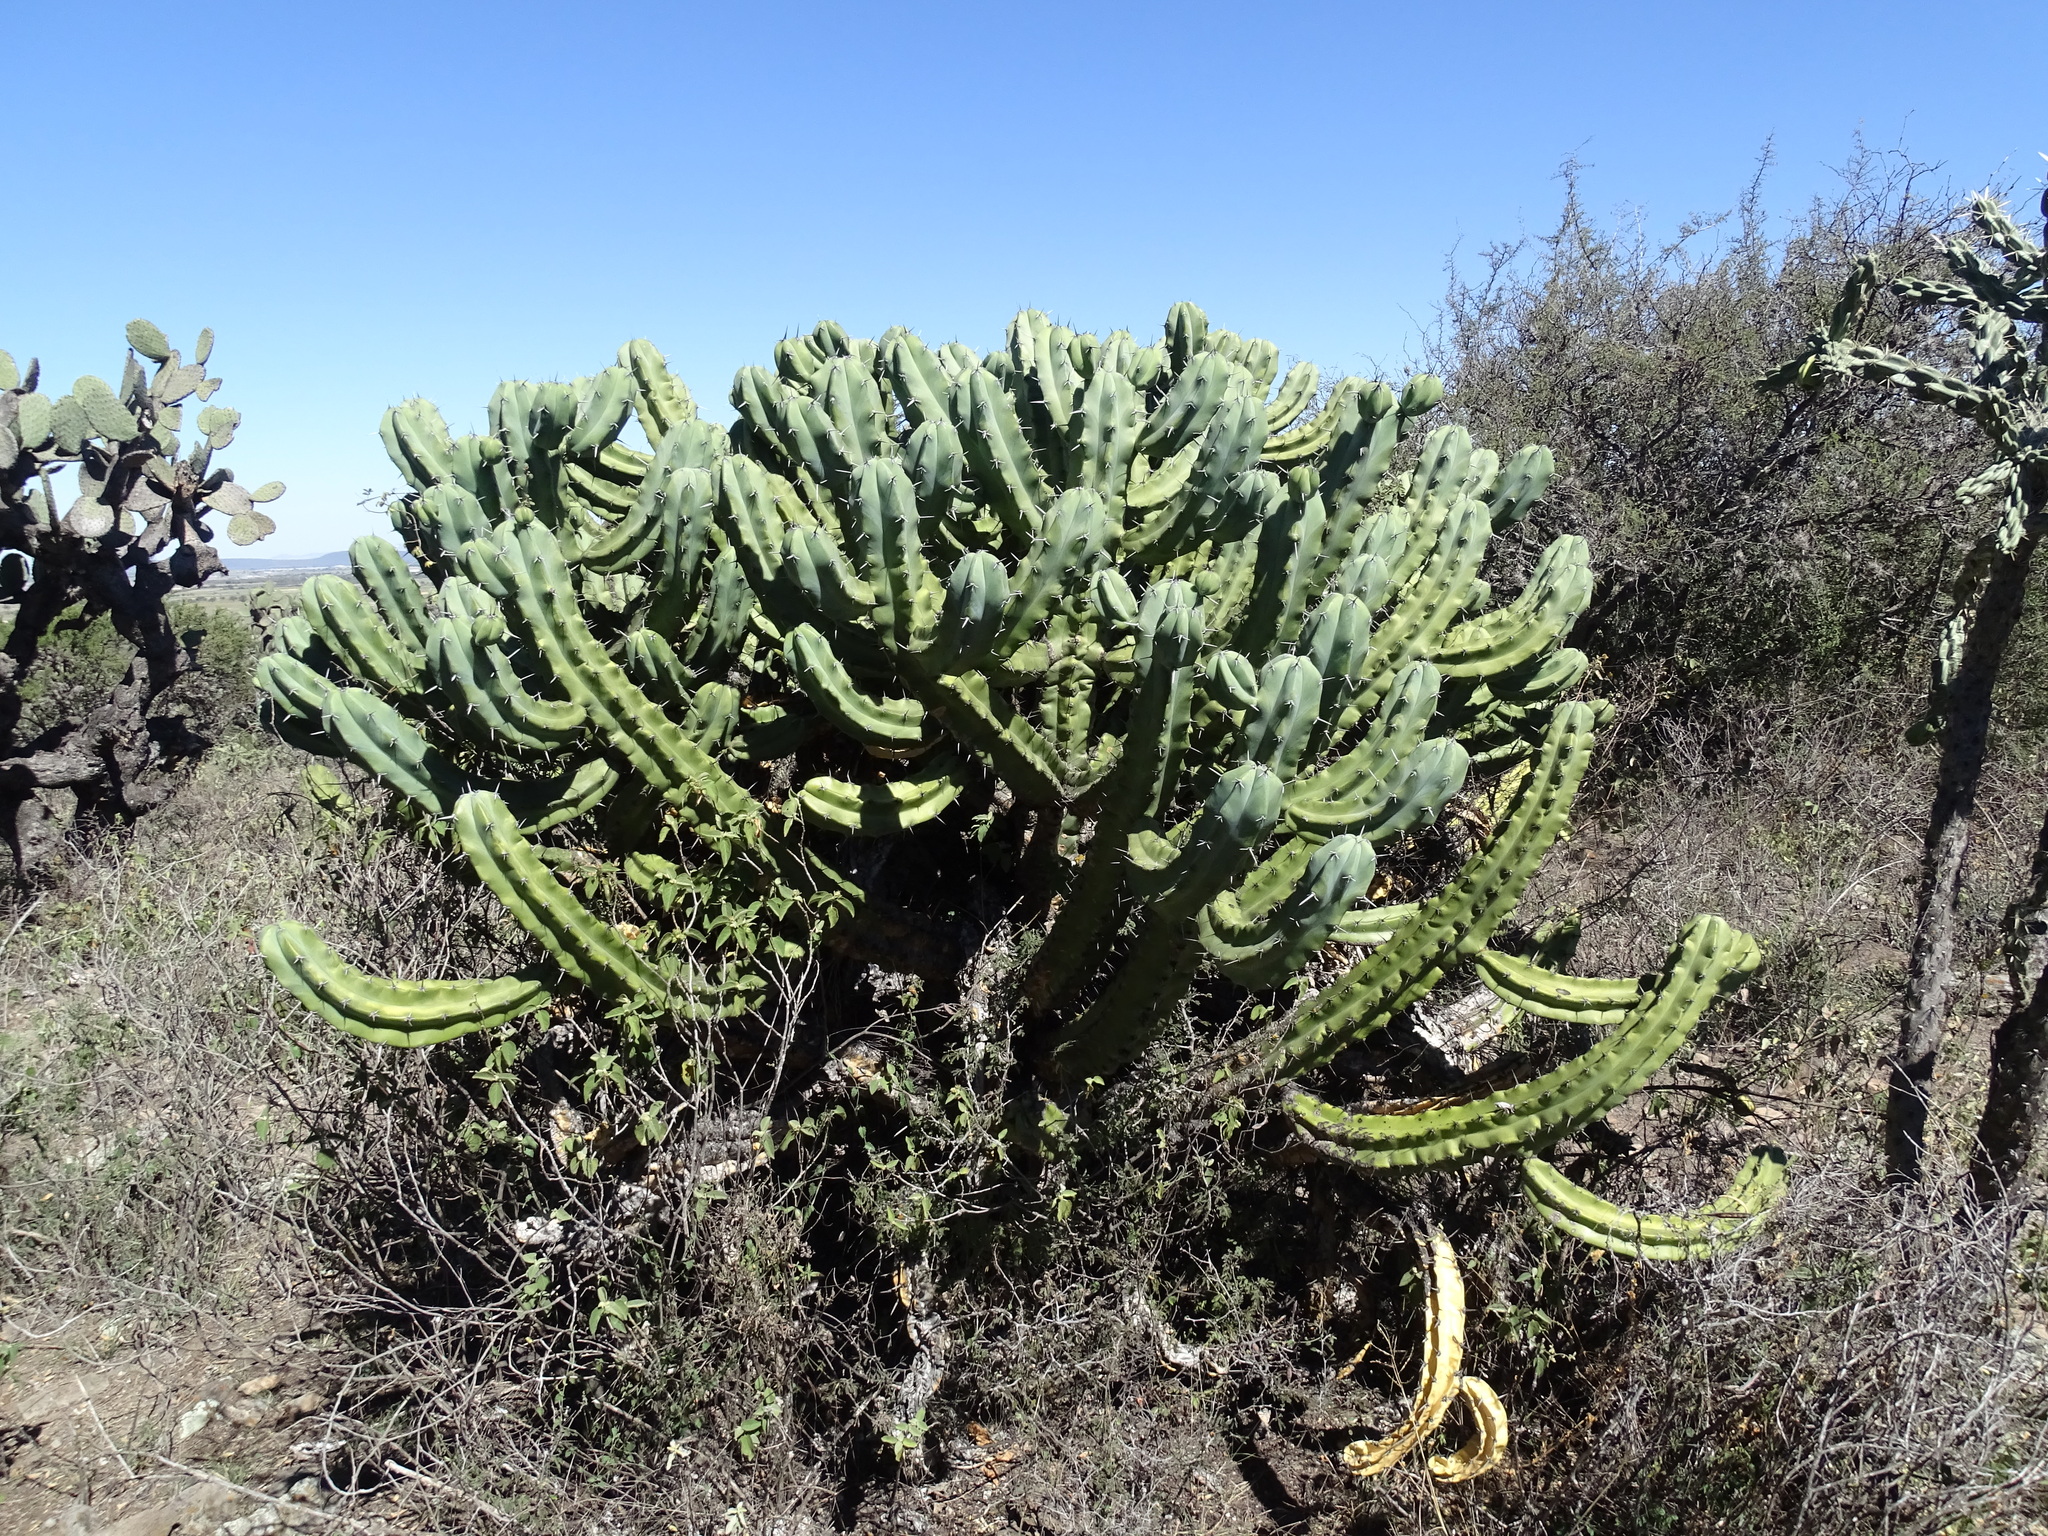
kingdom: Plantae
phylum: Tracheophyta
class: Magnoliopsida
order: Caryophyllales
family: Cactaceae
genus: Myrtillocactus
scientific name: Myrtillocactus geometrizans
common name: Bilberry cactus
